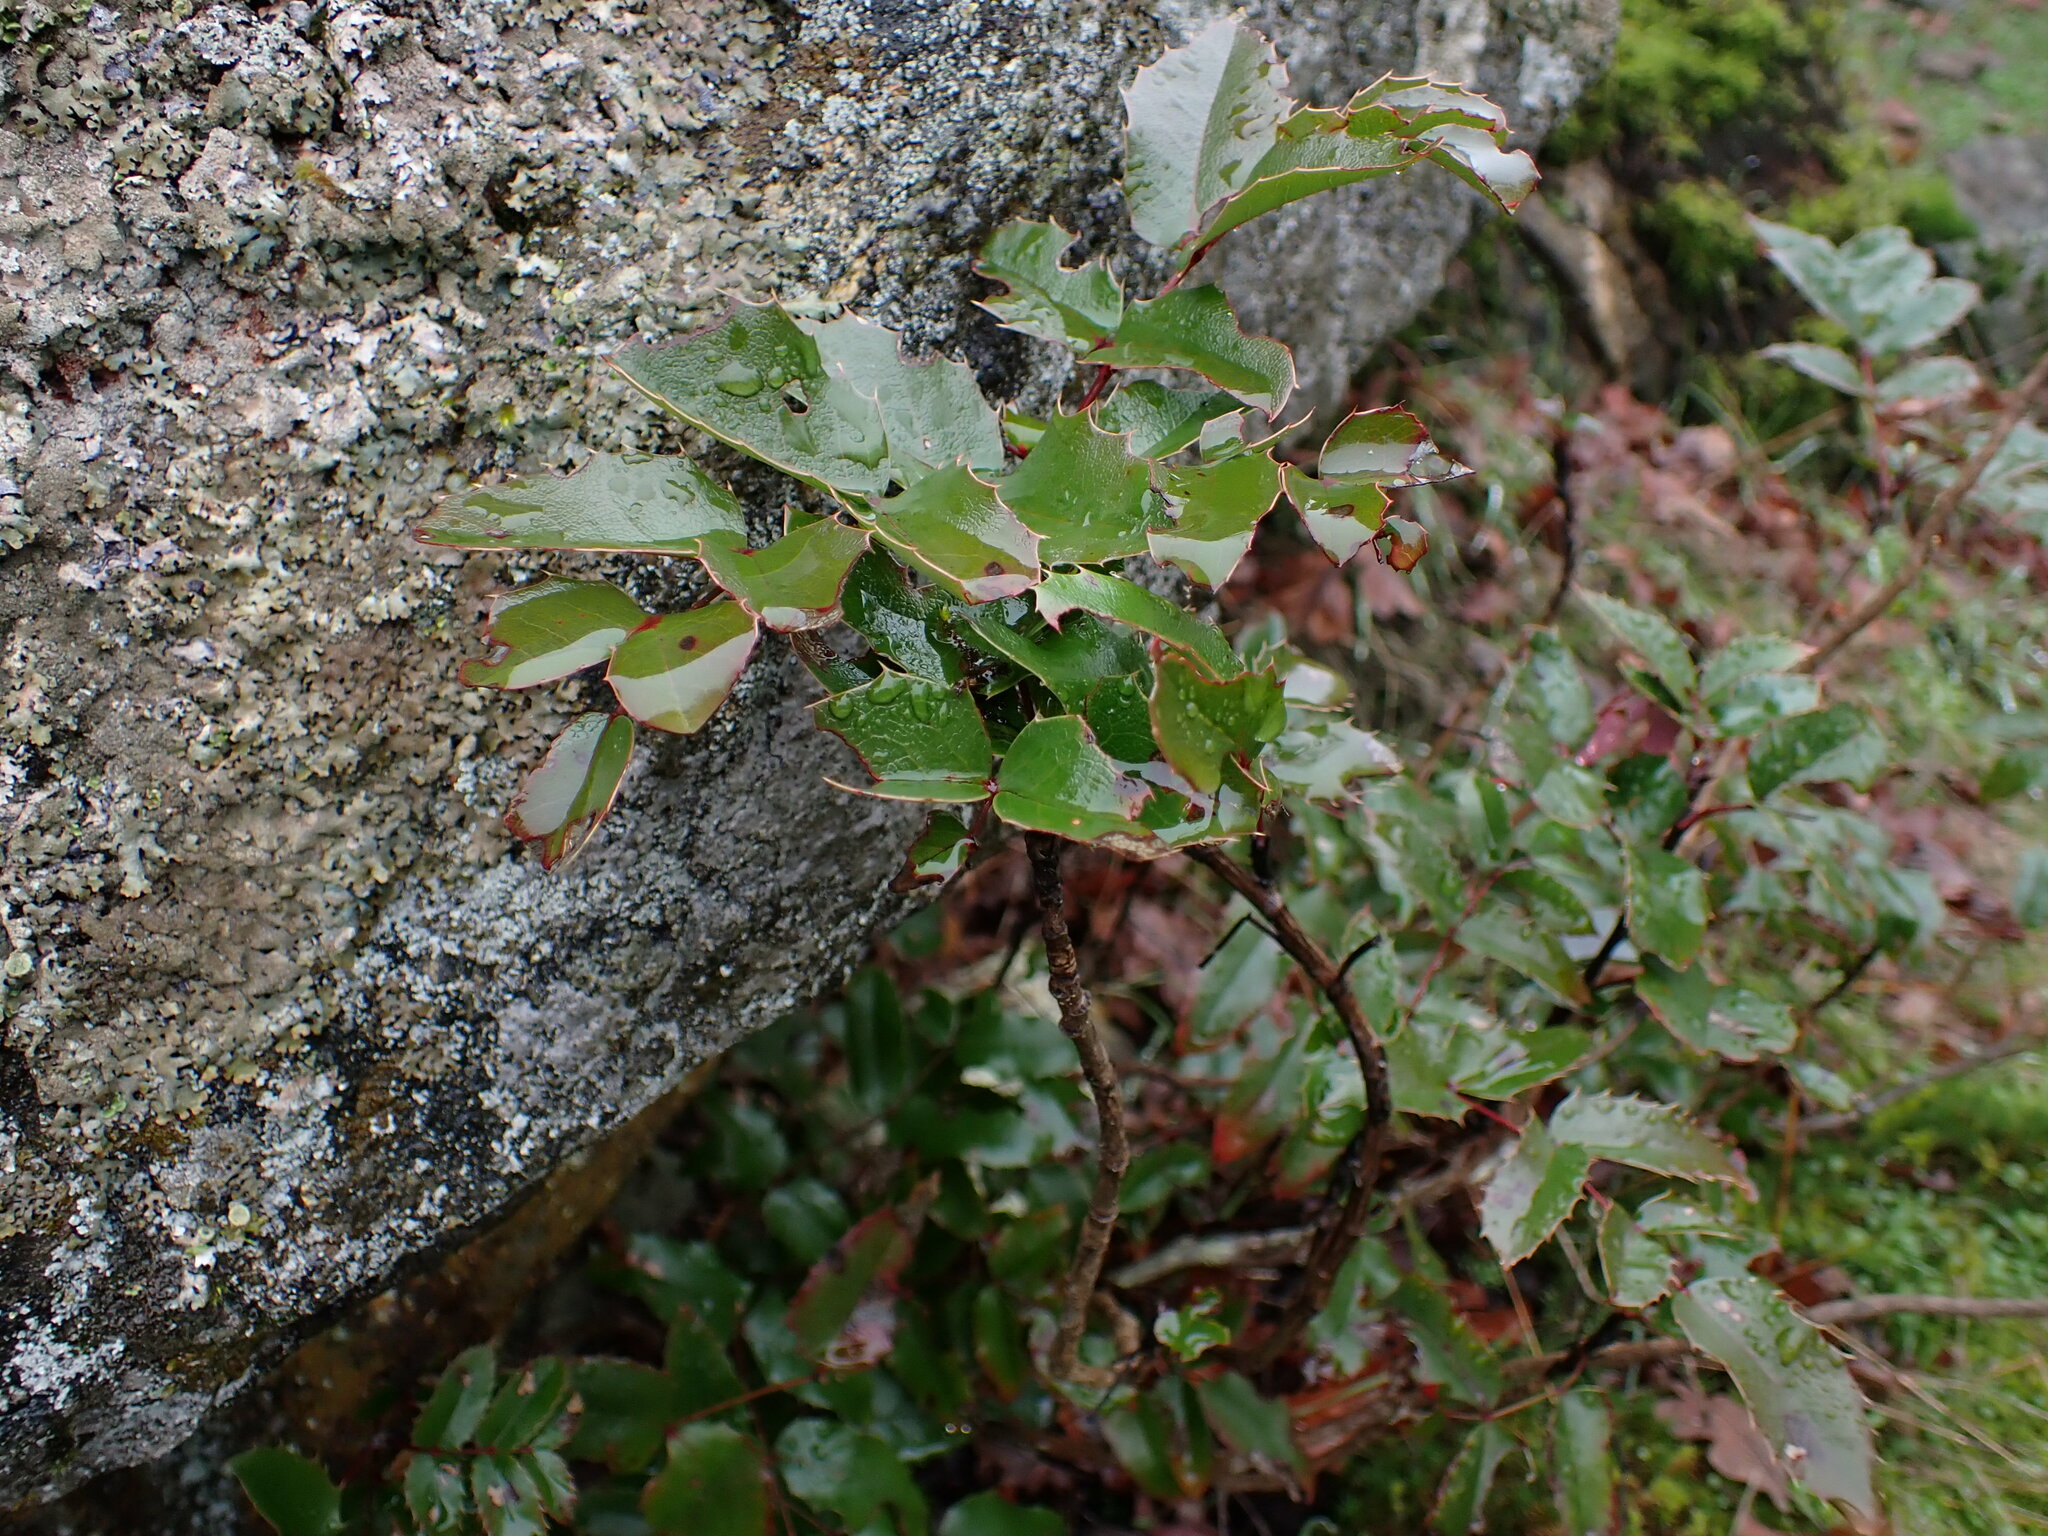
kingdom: Plantae
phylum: Tracheophyta
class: Magnoliopsida
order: Ranunculales
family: Berberidaceae
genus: Mahonia
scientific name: Mahonia aquifolium
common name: Oregon-grape
